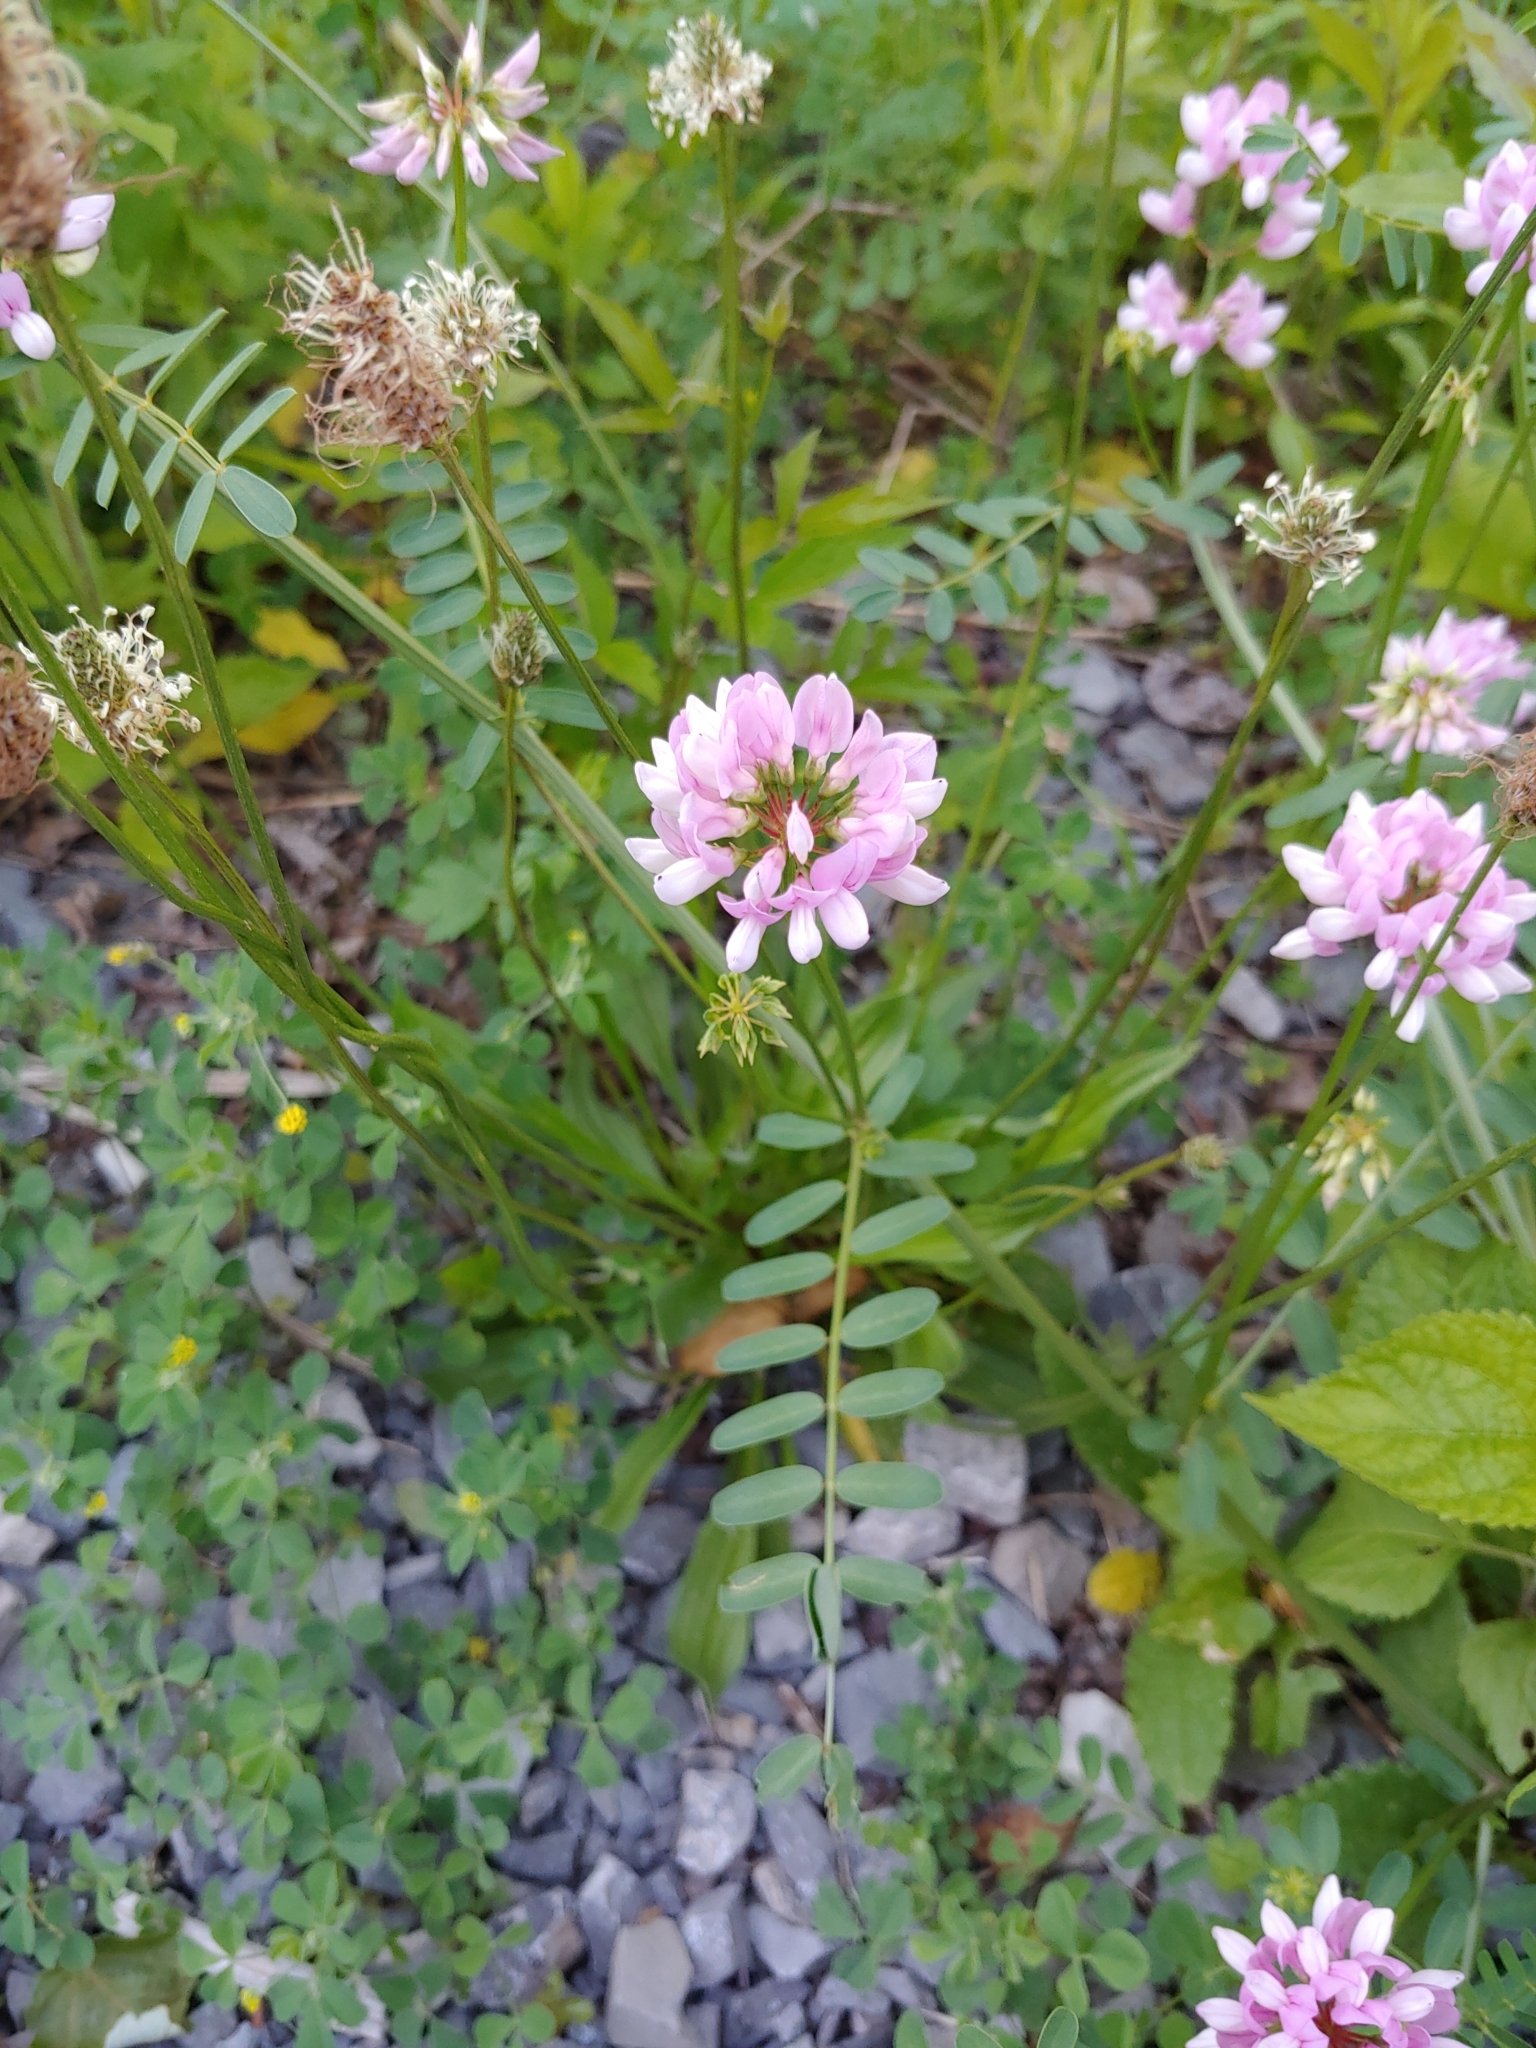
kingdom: Plantae
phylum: Tracheophyta
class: Magnoliopsida
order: Fabales
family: Fabaceae
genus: Coronilla
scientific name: Coronilla varia
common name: Crownvetch
